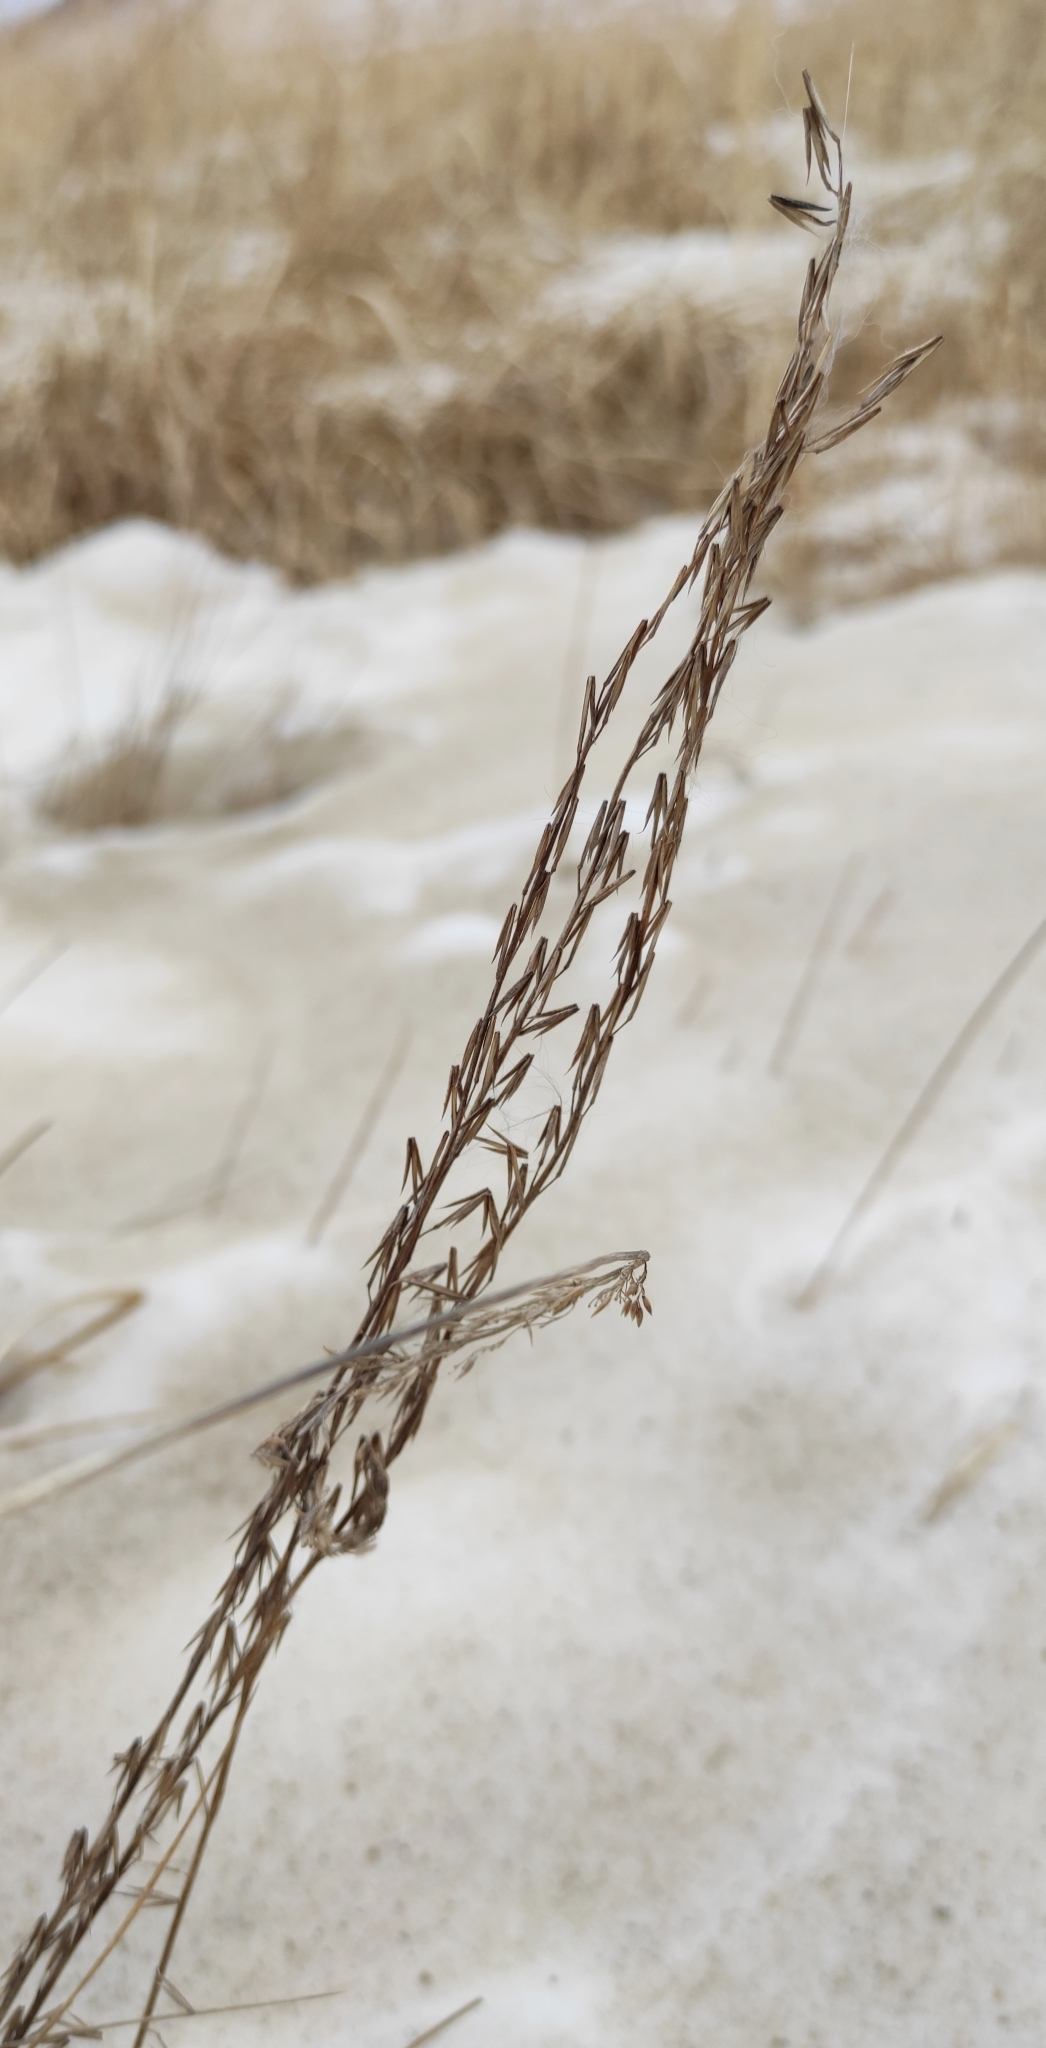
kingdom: Plantae
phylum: Tracheophyta
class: Liliopsida
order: Alismatales
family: Juncaginaceae
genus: Triglochin
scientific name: Triglochin palustris
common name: Marsh arrowgrass
